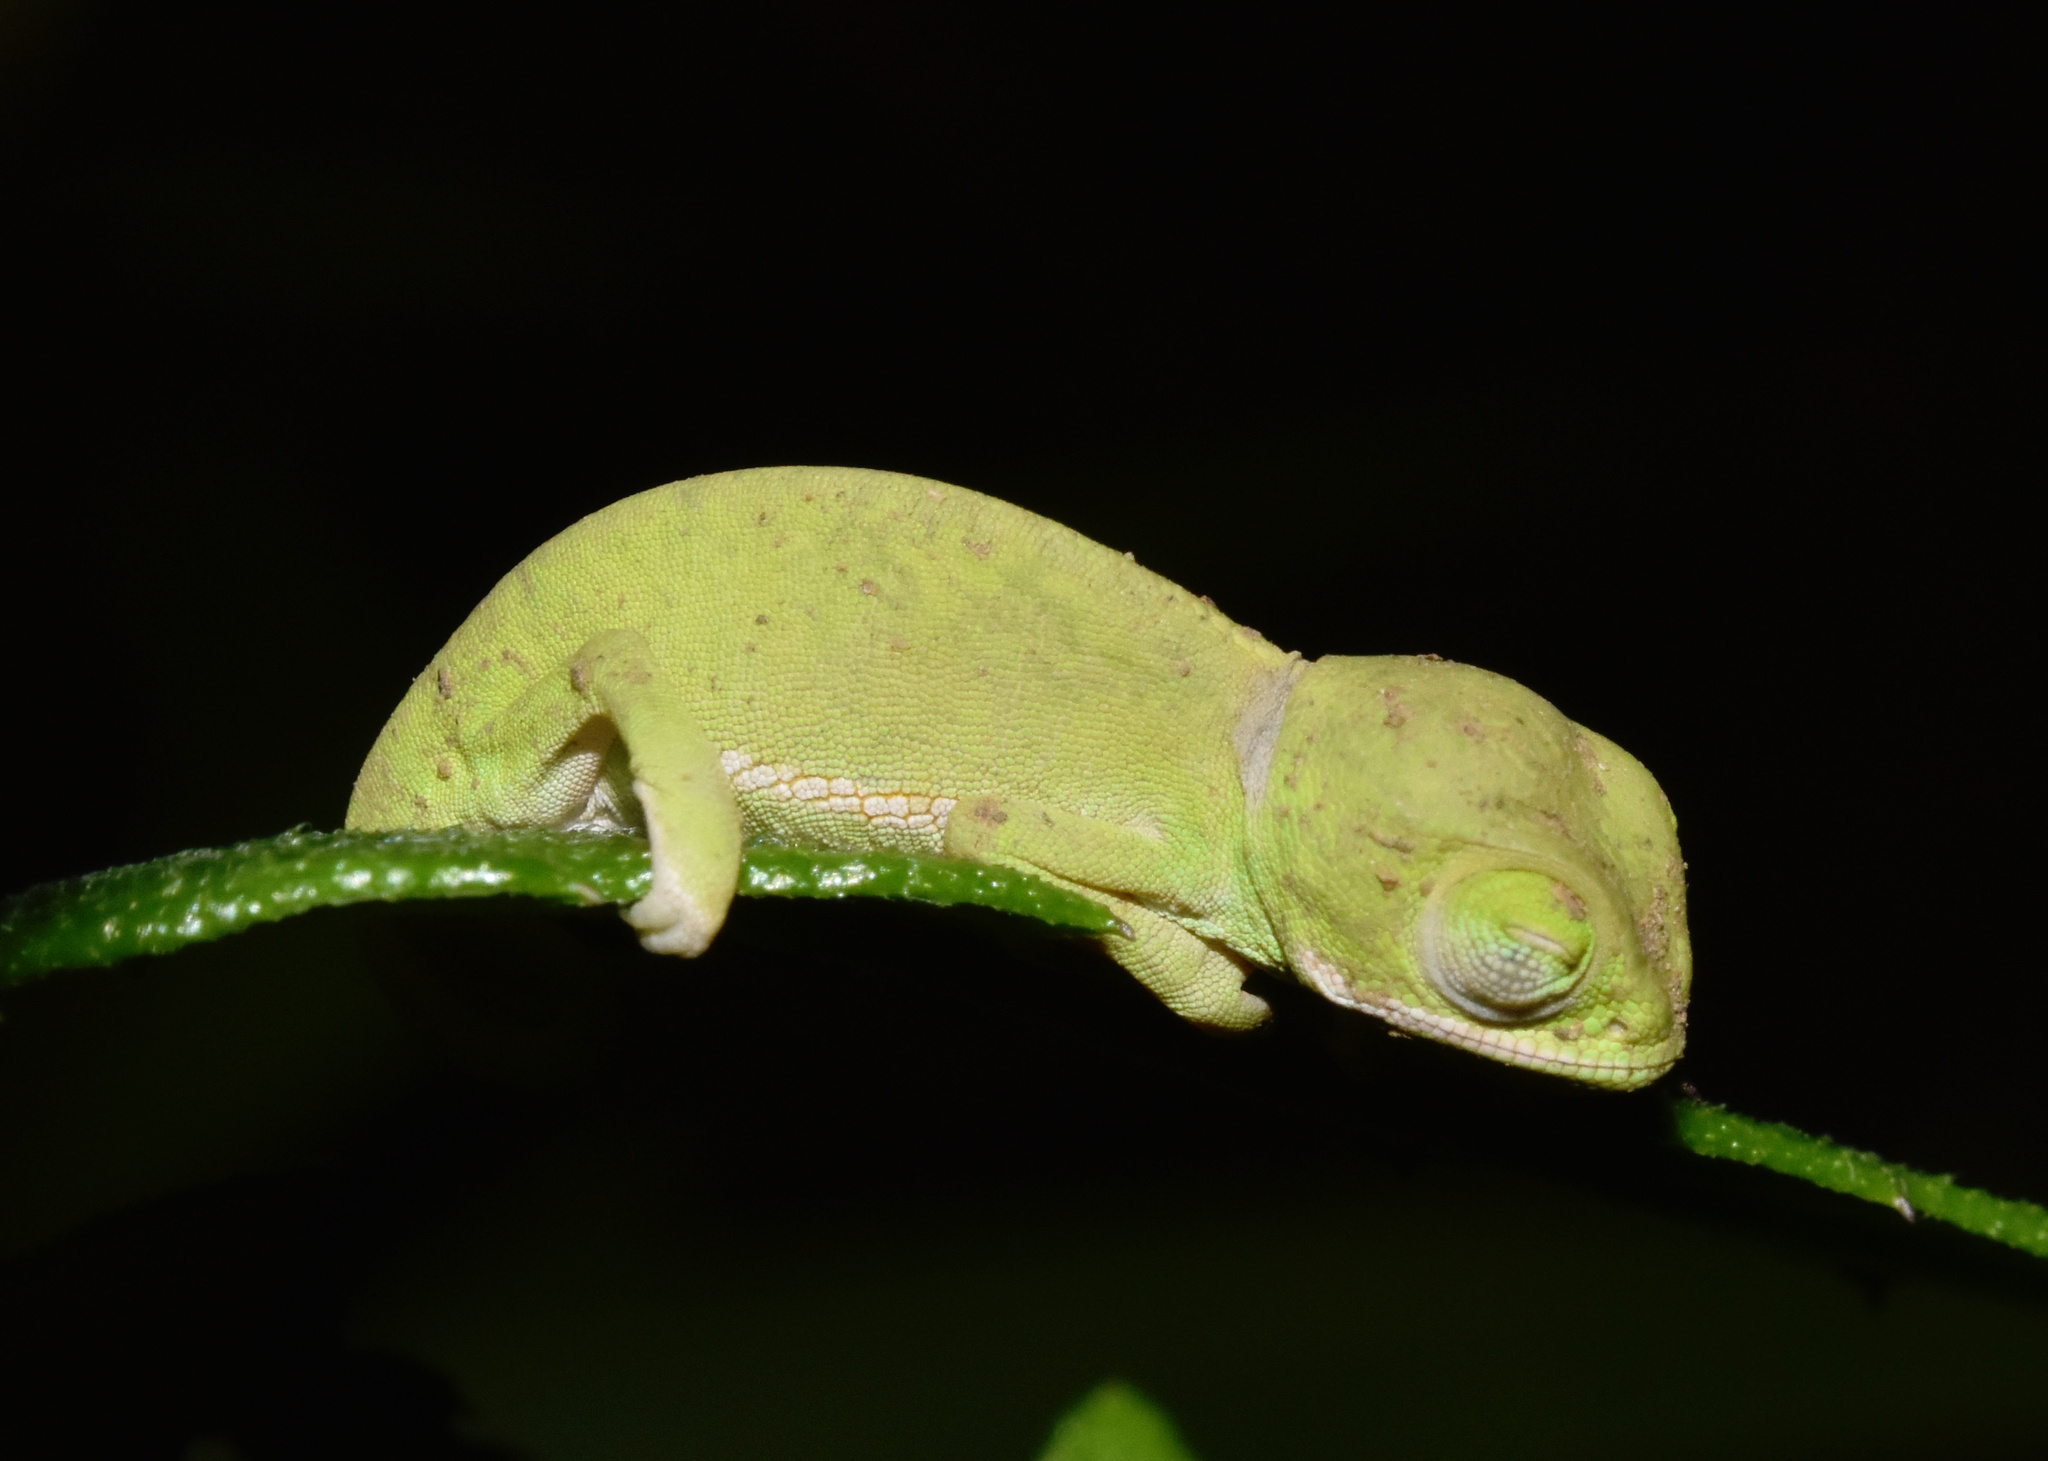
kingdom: Animalia
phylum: Chordata
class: Squamata
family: Chamaeleonidae
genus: Chamaeleo
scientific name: Chamaeleo dilepis
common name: Flapneck chameleon
